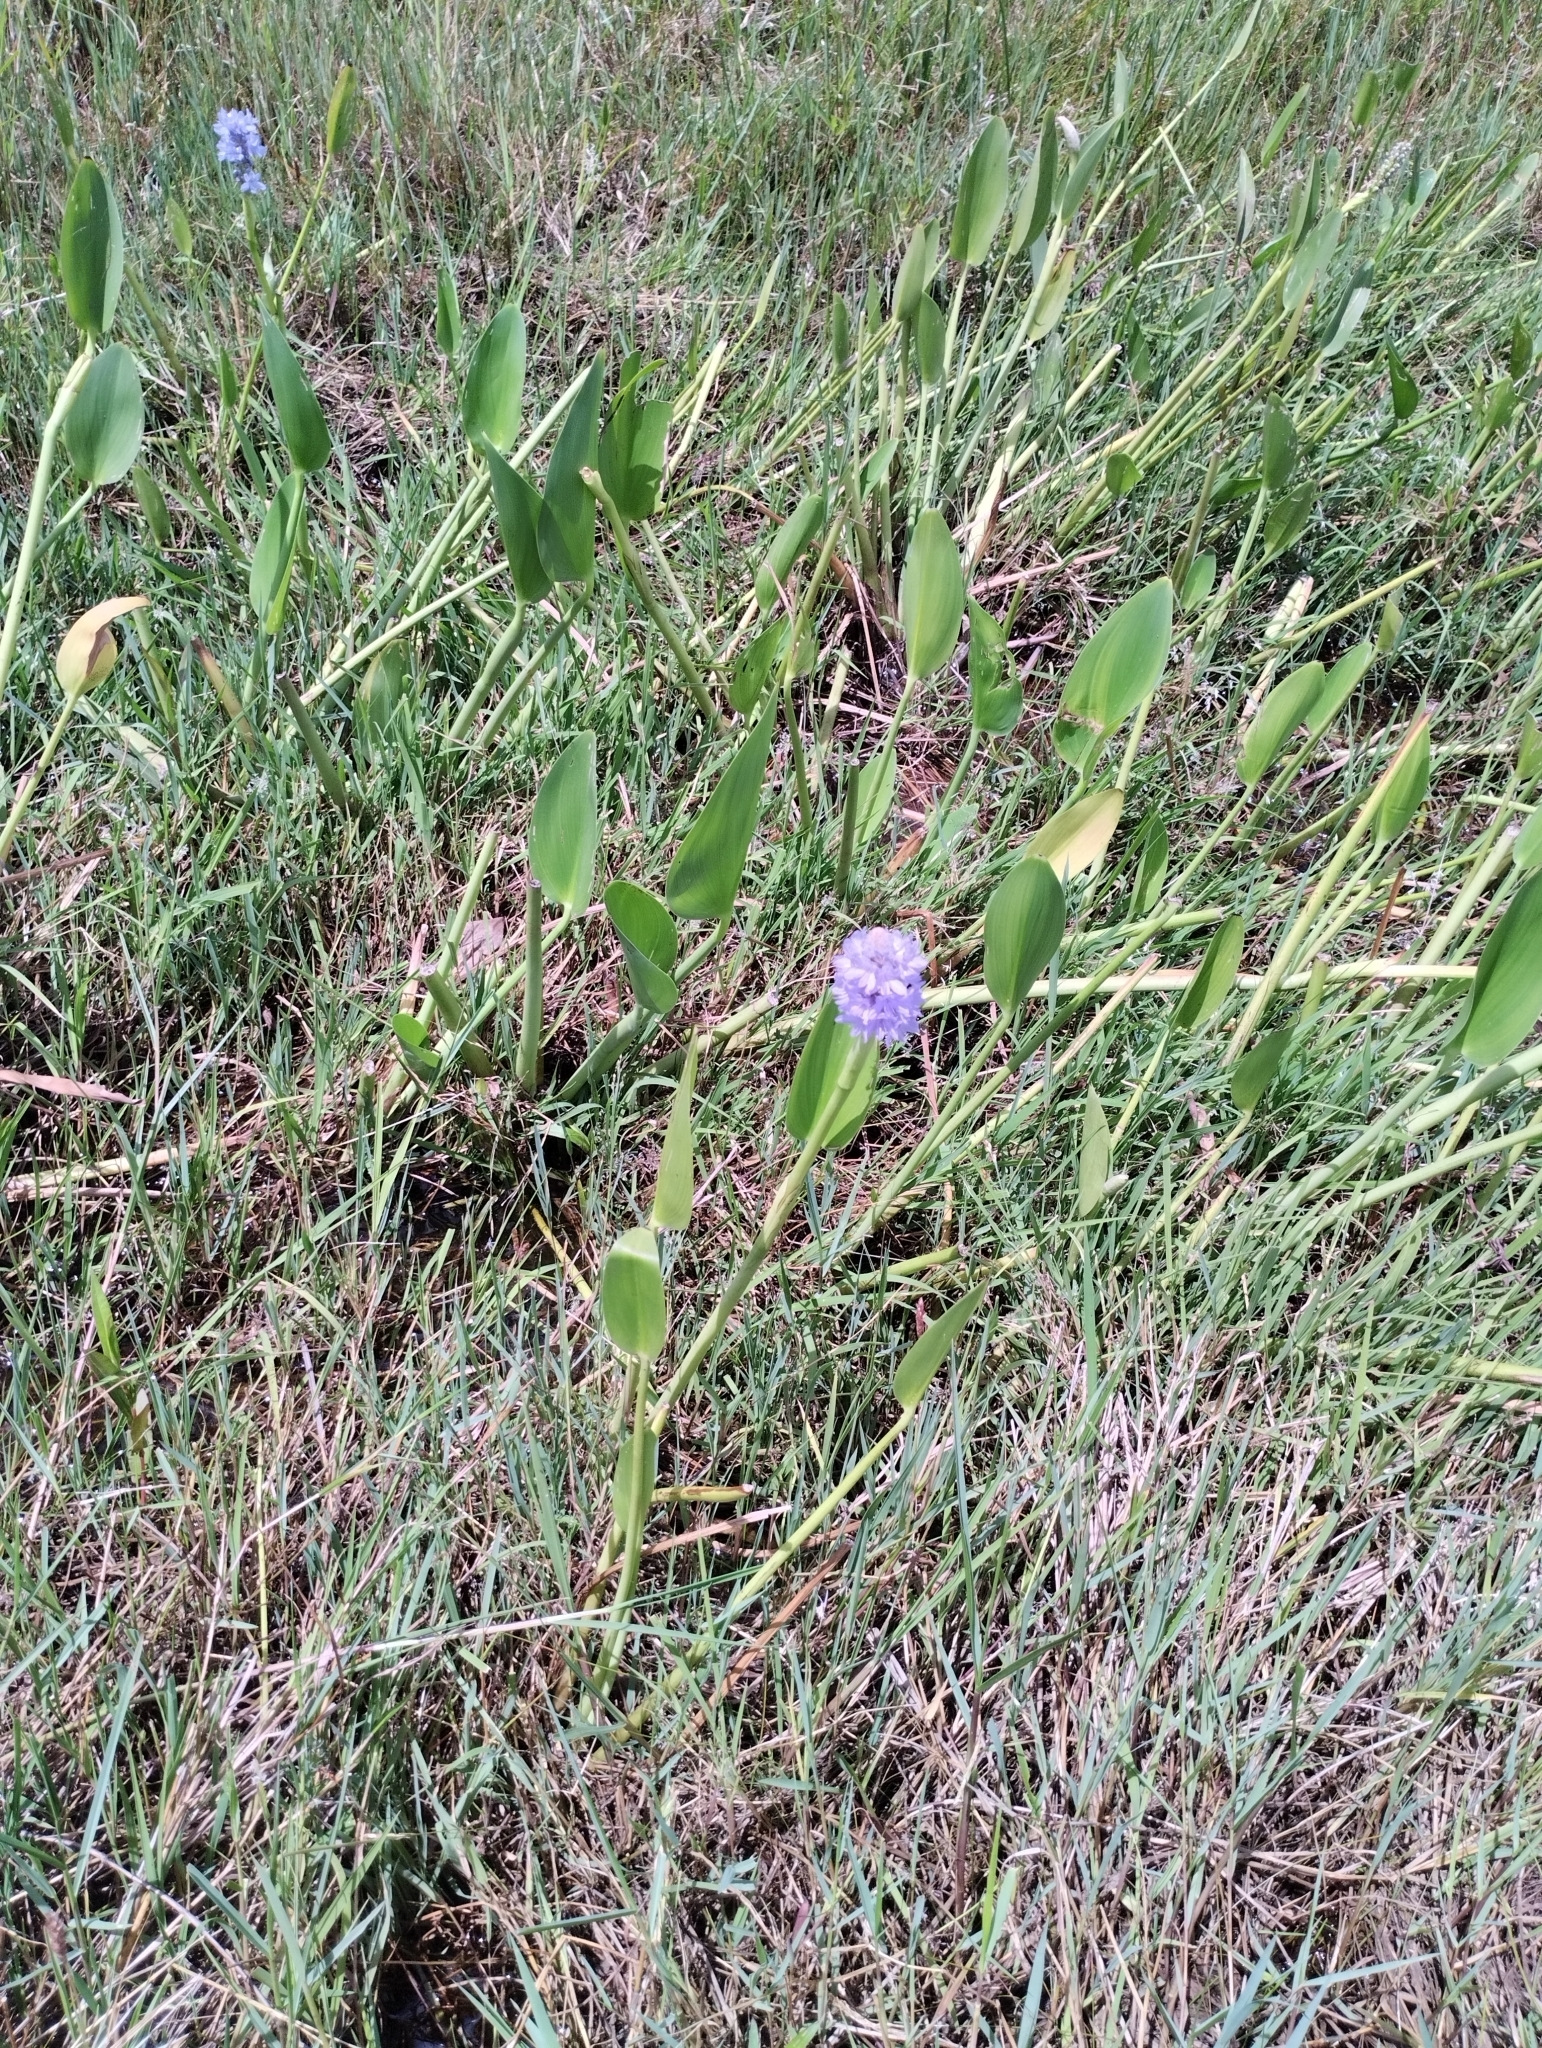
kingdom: Plantae
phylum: Tracheophyta
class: Liliopsida
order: Commelinales
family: Pontederiaceae
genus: Pontederia
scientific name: Pontederia cordata
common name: Pickerelweed
